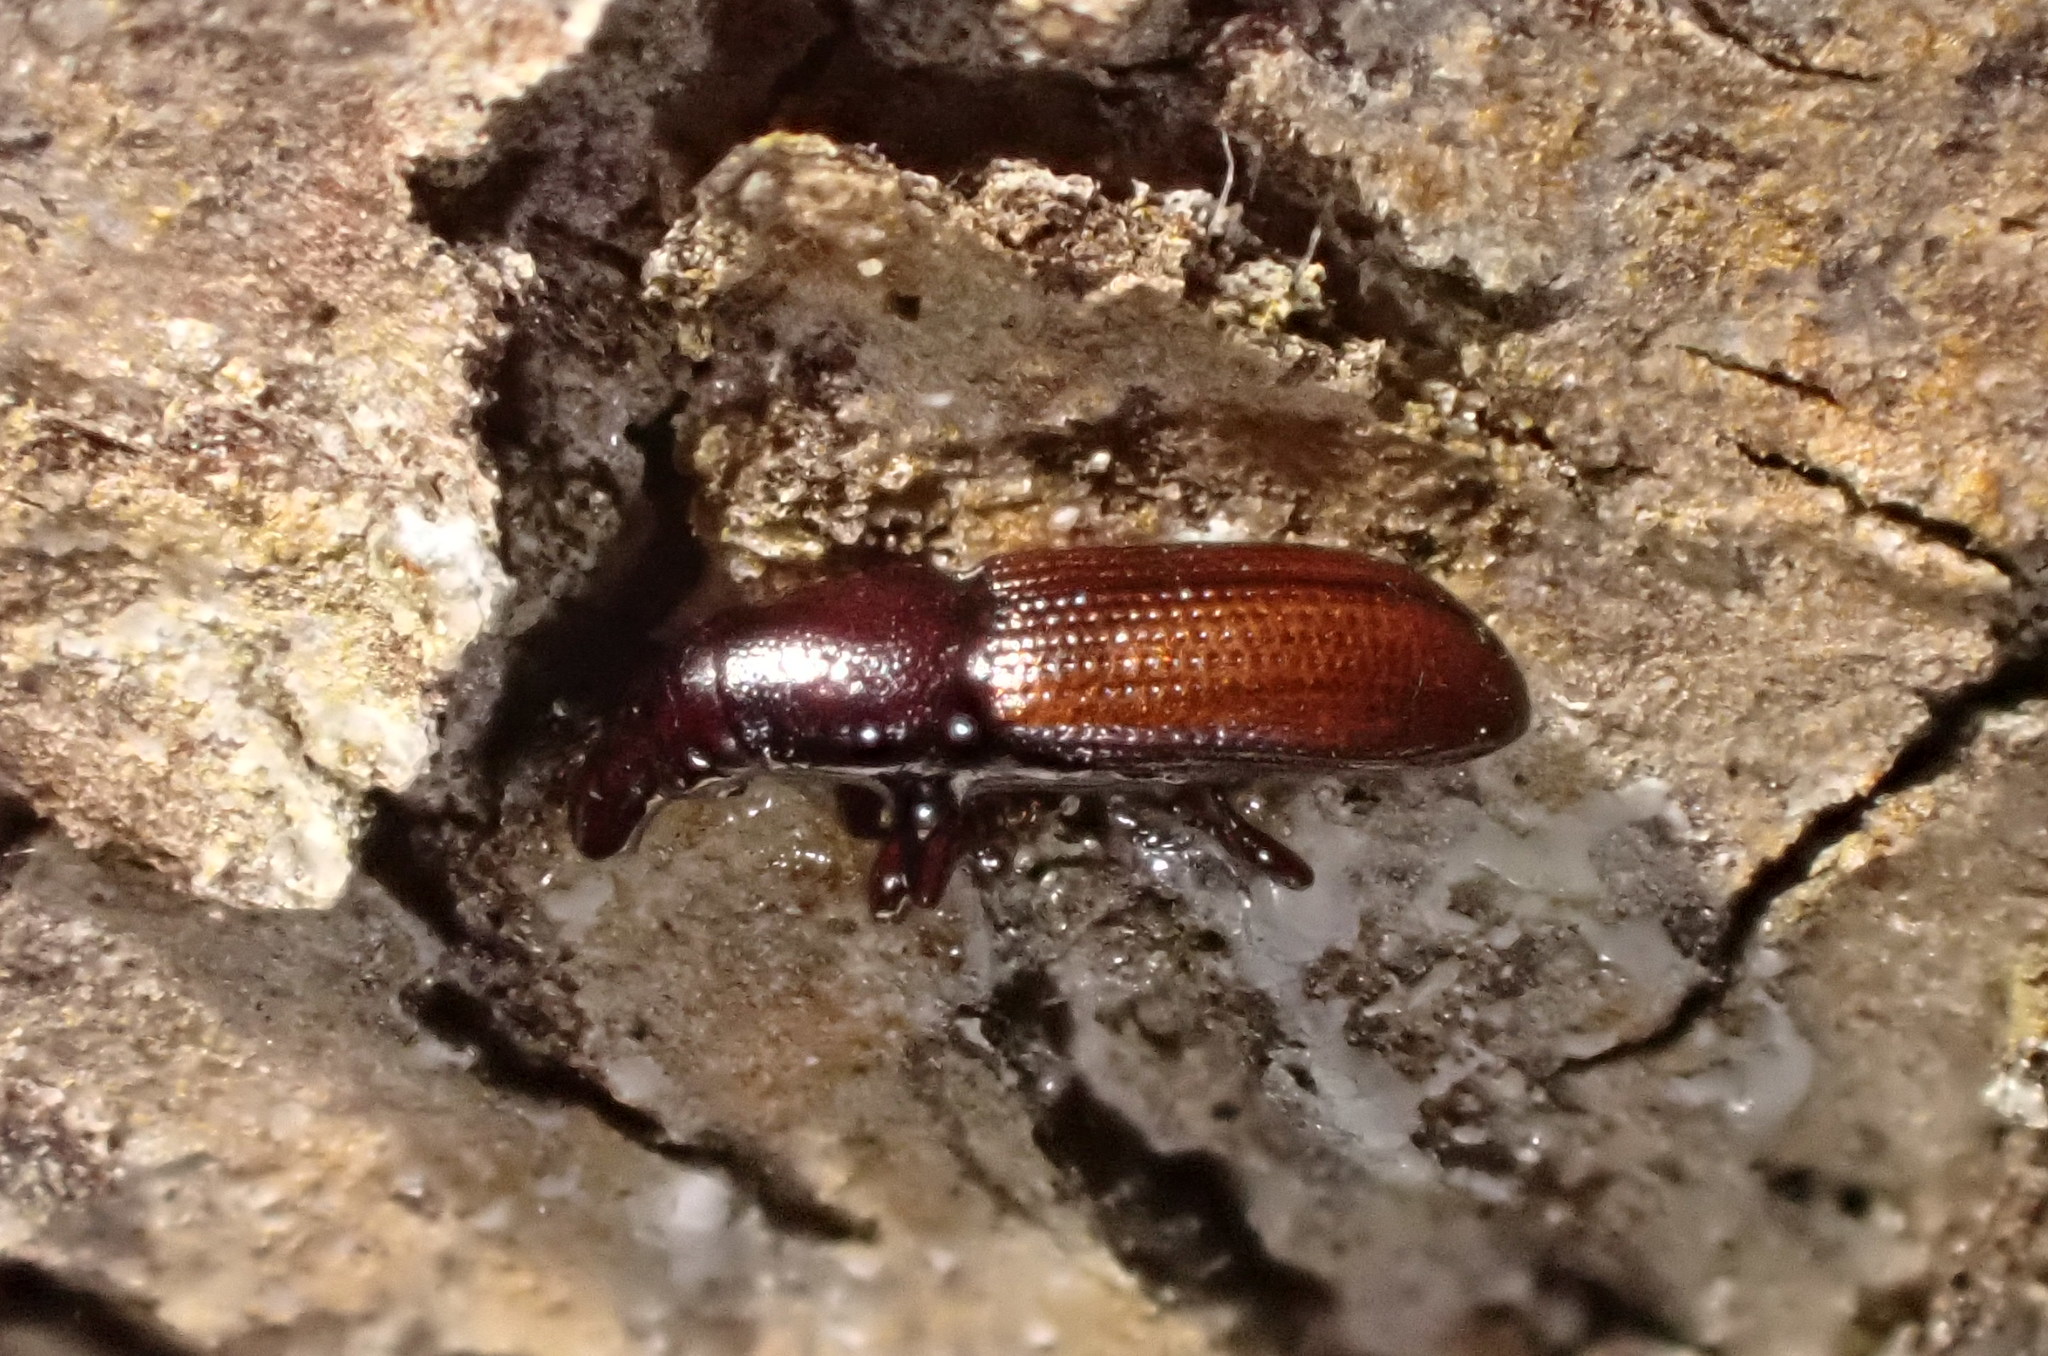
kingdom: Animalia
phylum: Arthropoda
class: Insecta
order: Coleoptera
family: Curculionidae
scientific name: Curculionidae
